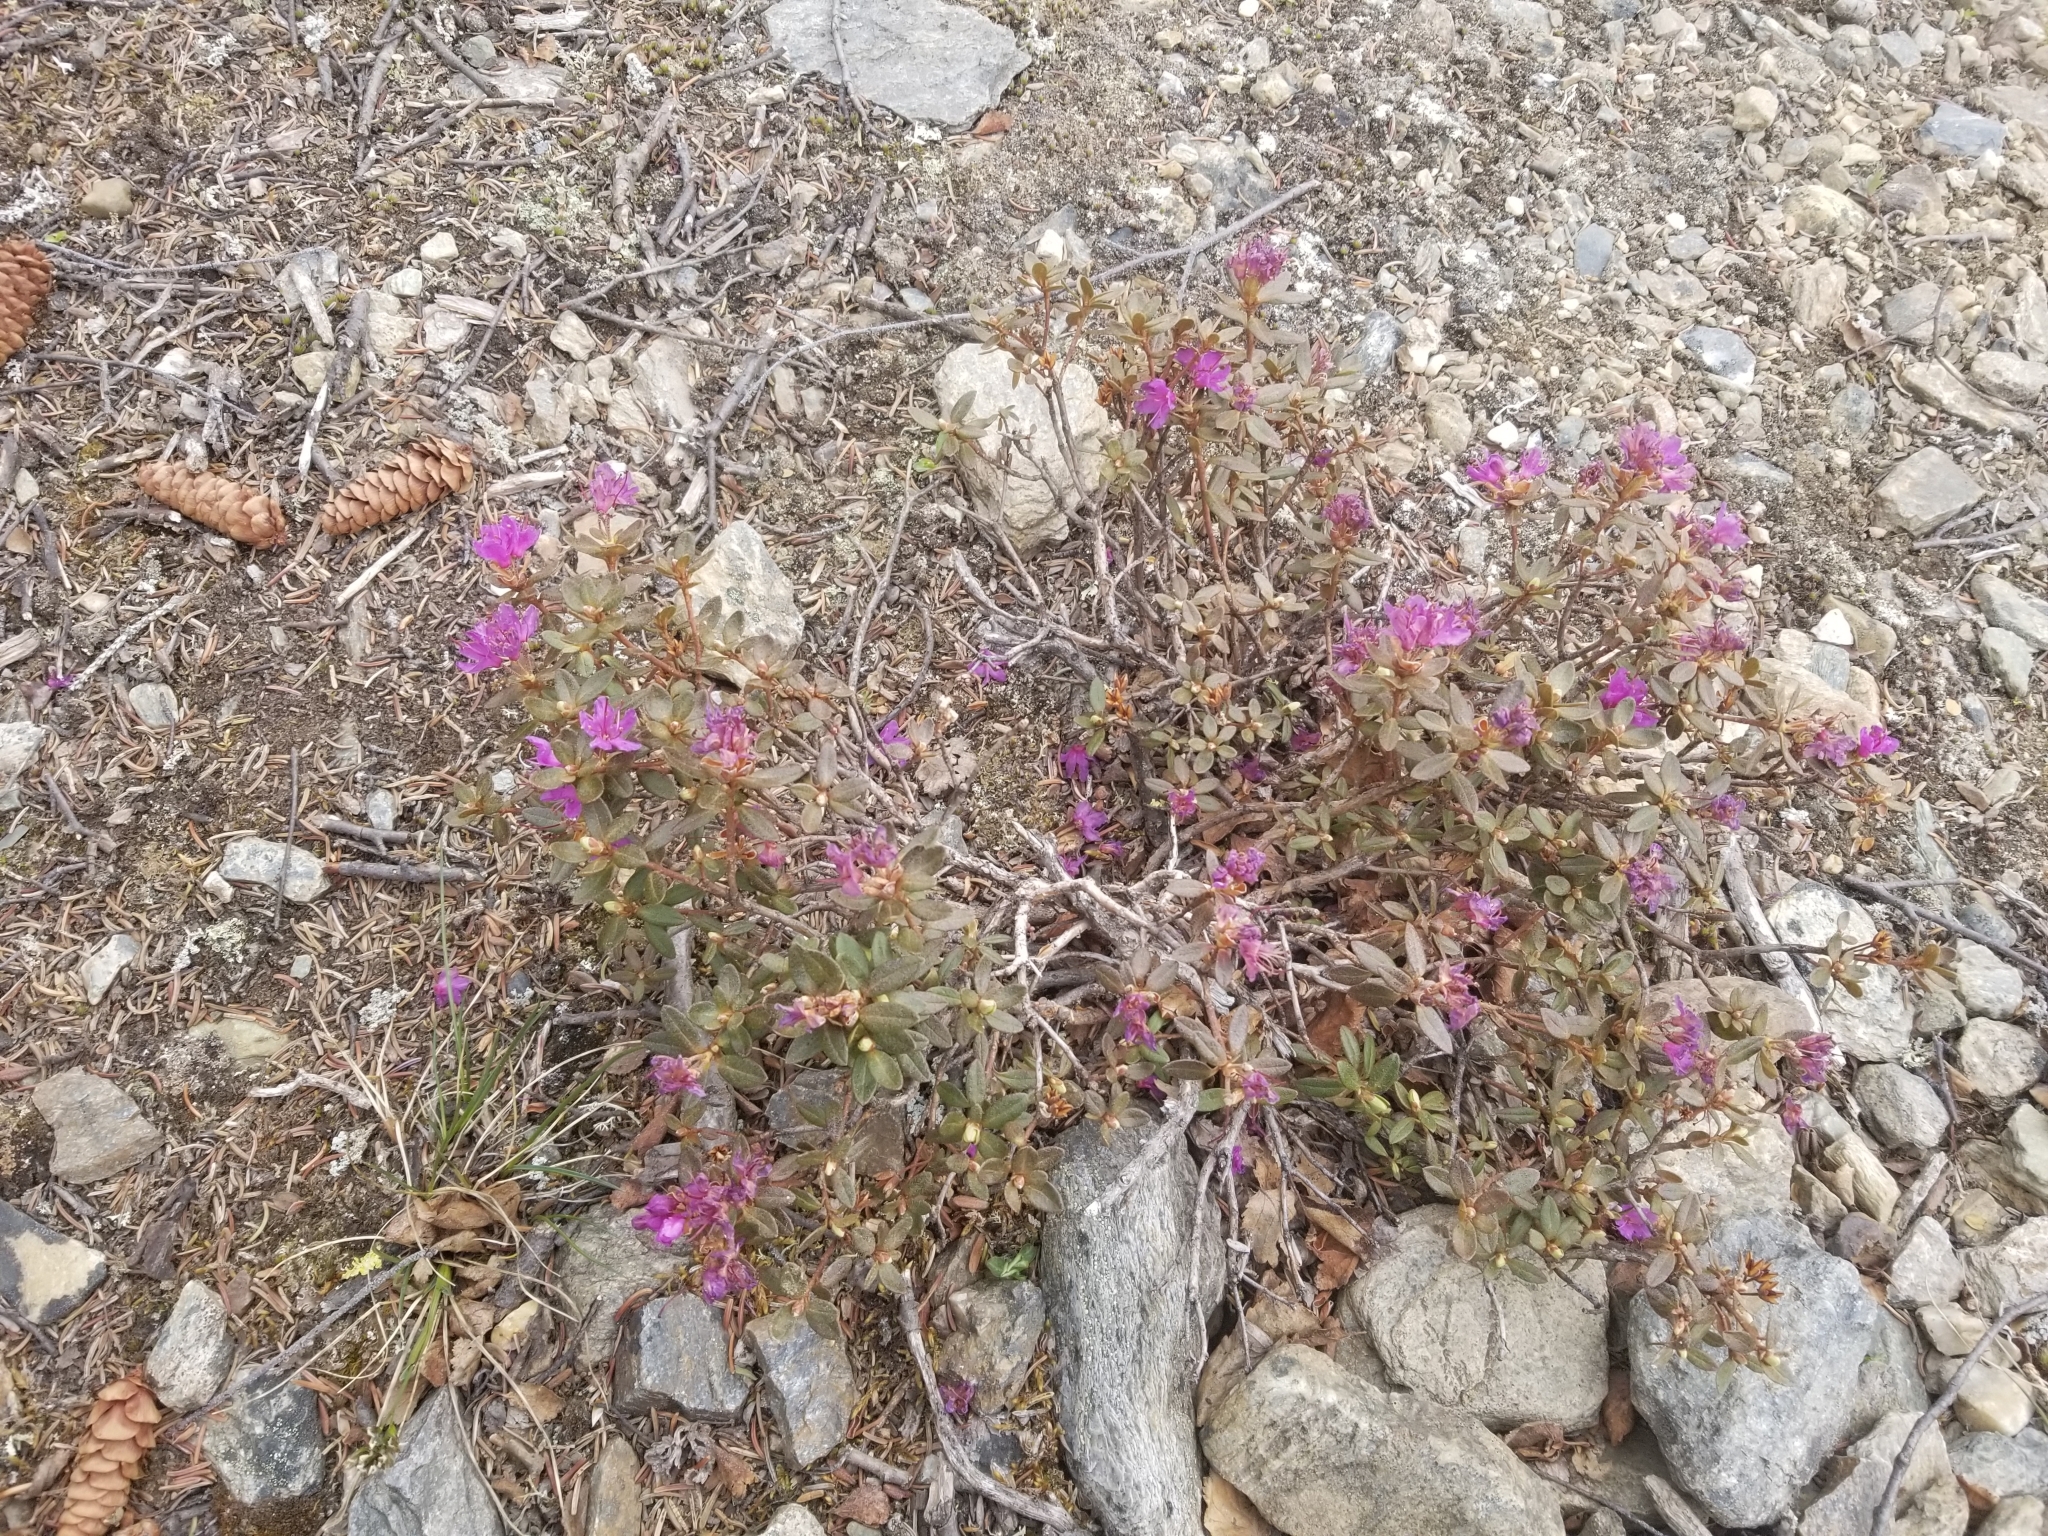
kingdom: Plantae
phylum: Tracheophyta
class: Magnoliopsida
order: Ericales
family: Ericaceae
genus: Rhododendron
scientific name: Rhododendron lapponicum
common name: Lapland rhododendron
